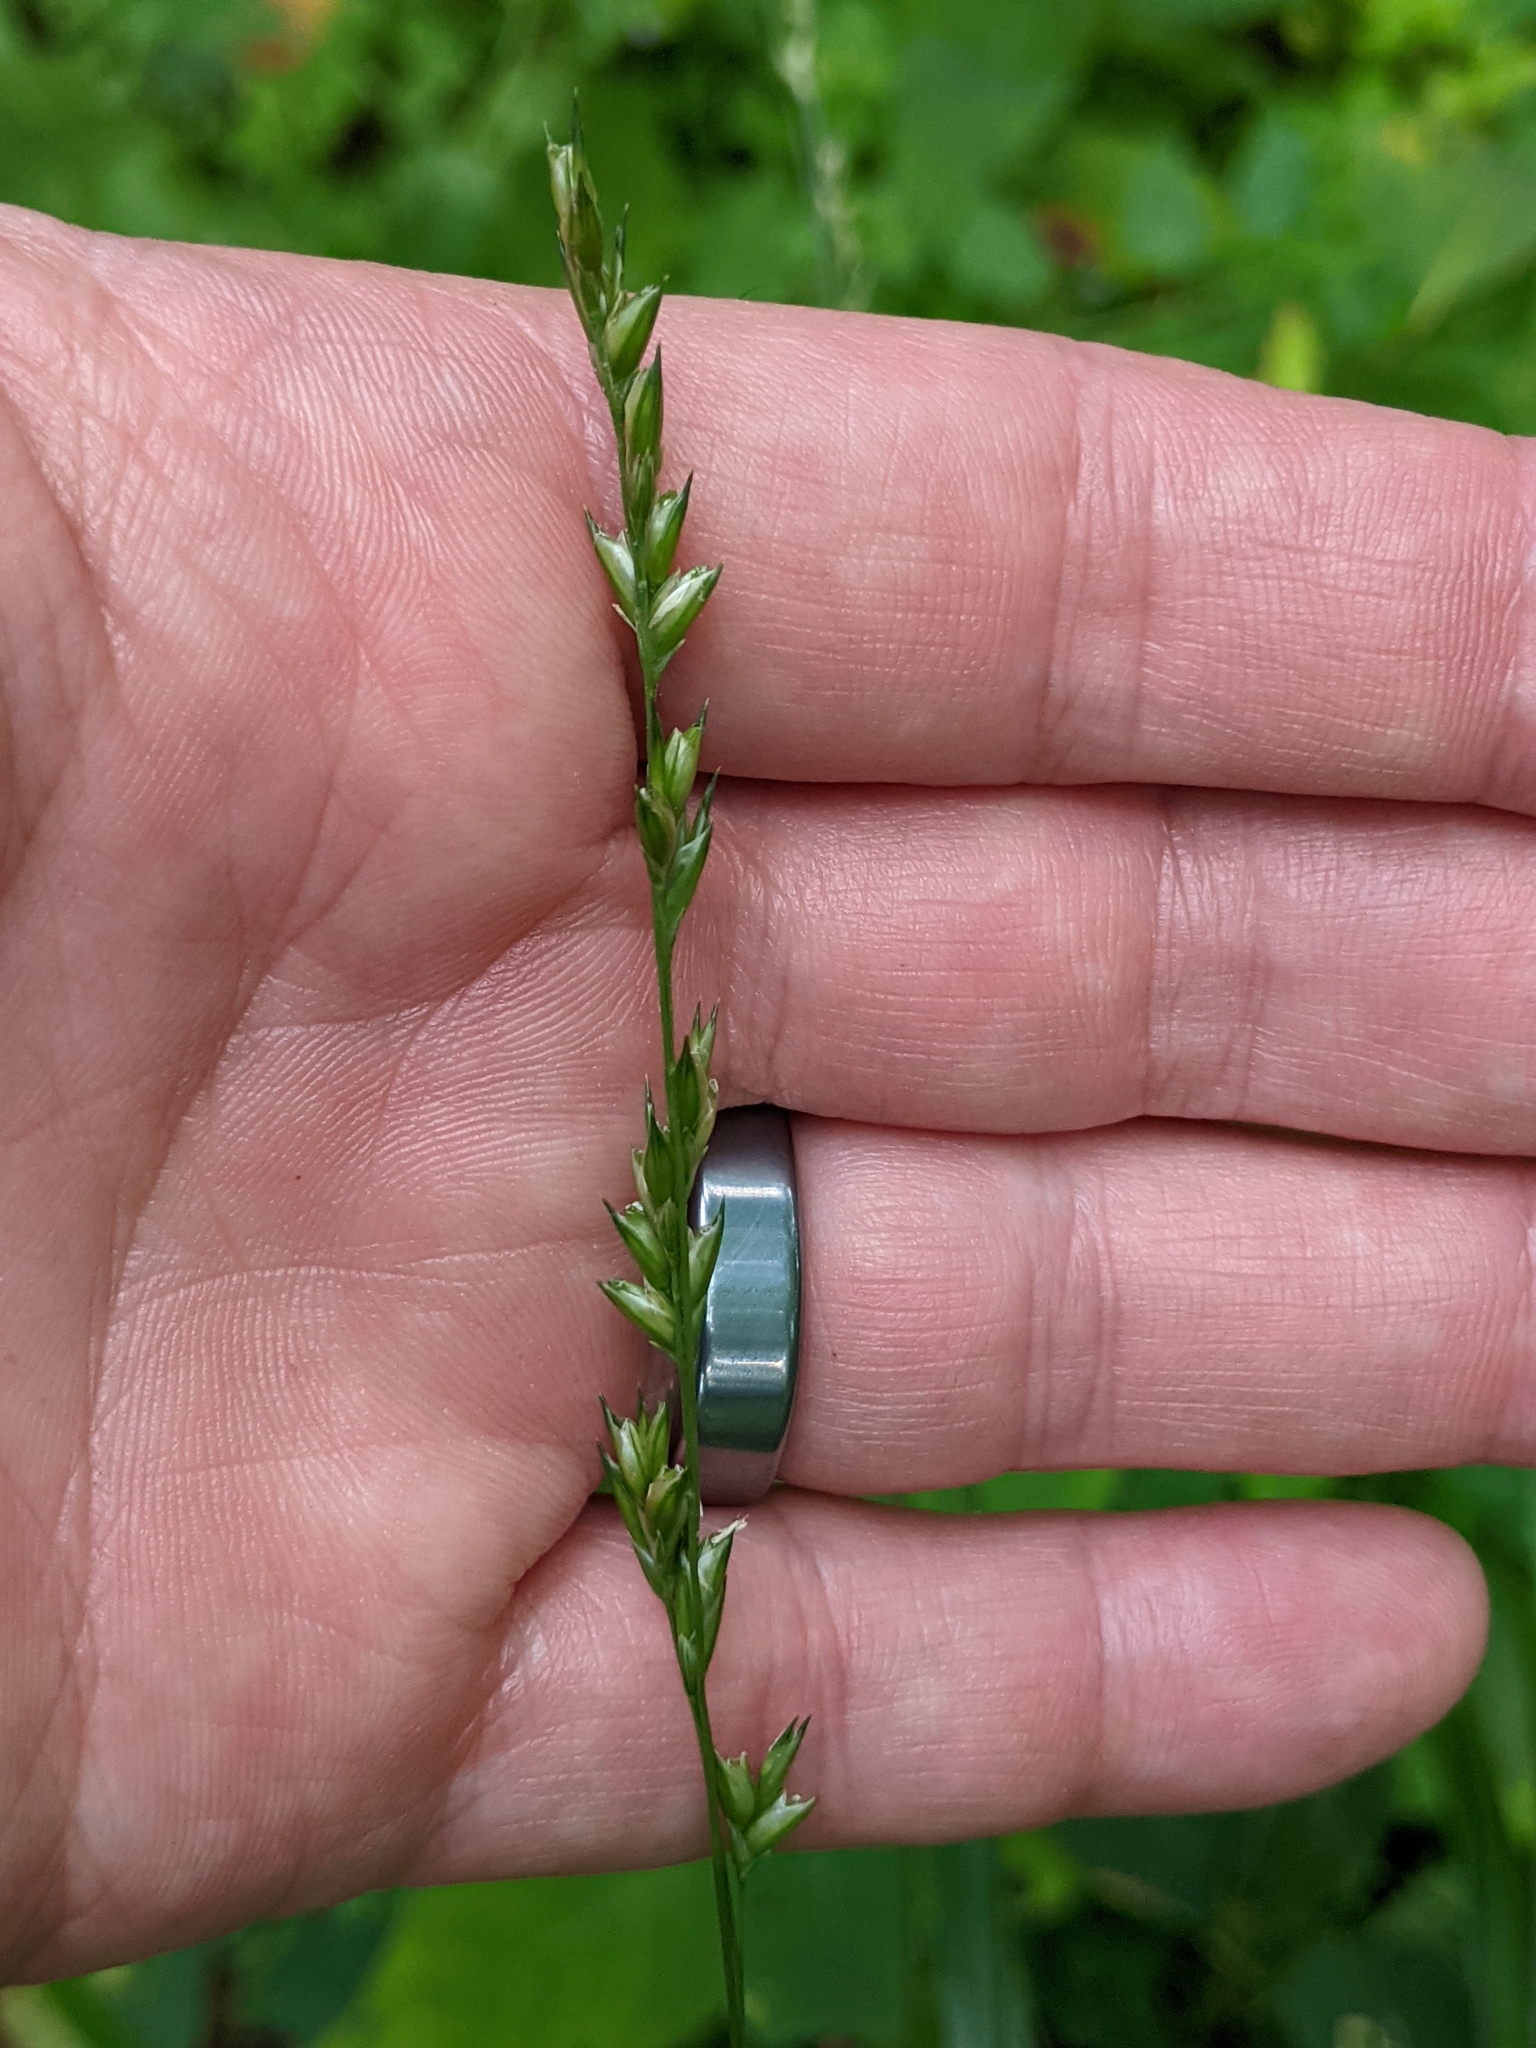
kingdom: Plantae
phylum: Tracheophyta
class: Liliopsida
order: Poales
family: Poaceae
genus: Diarrhena
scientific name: Diarrhena obovata
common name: Beakgrass
